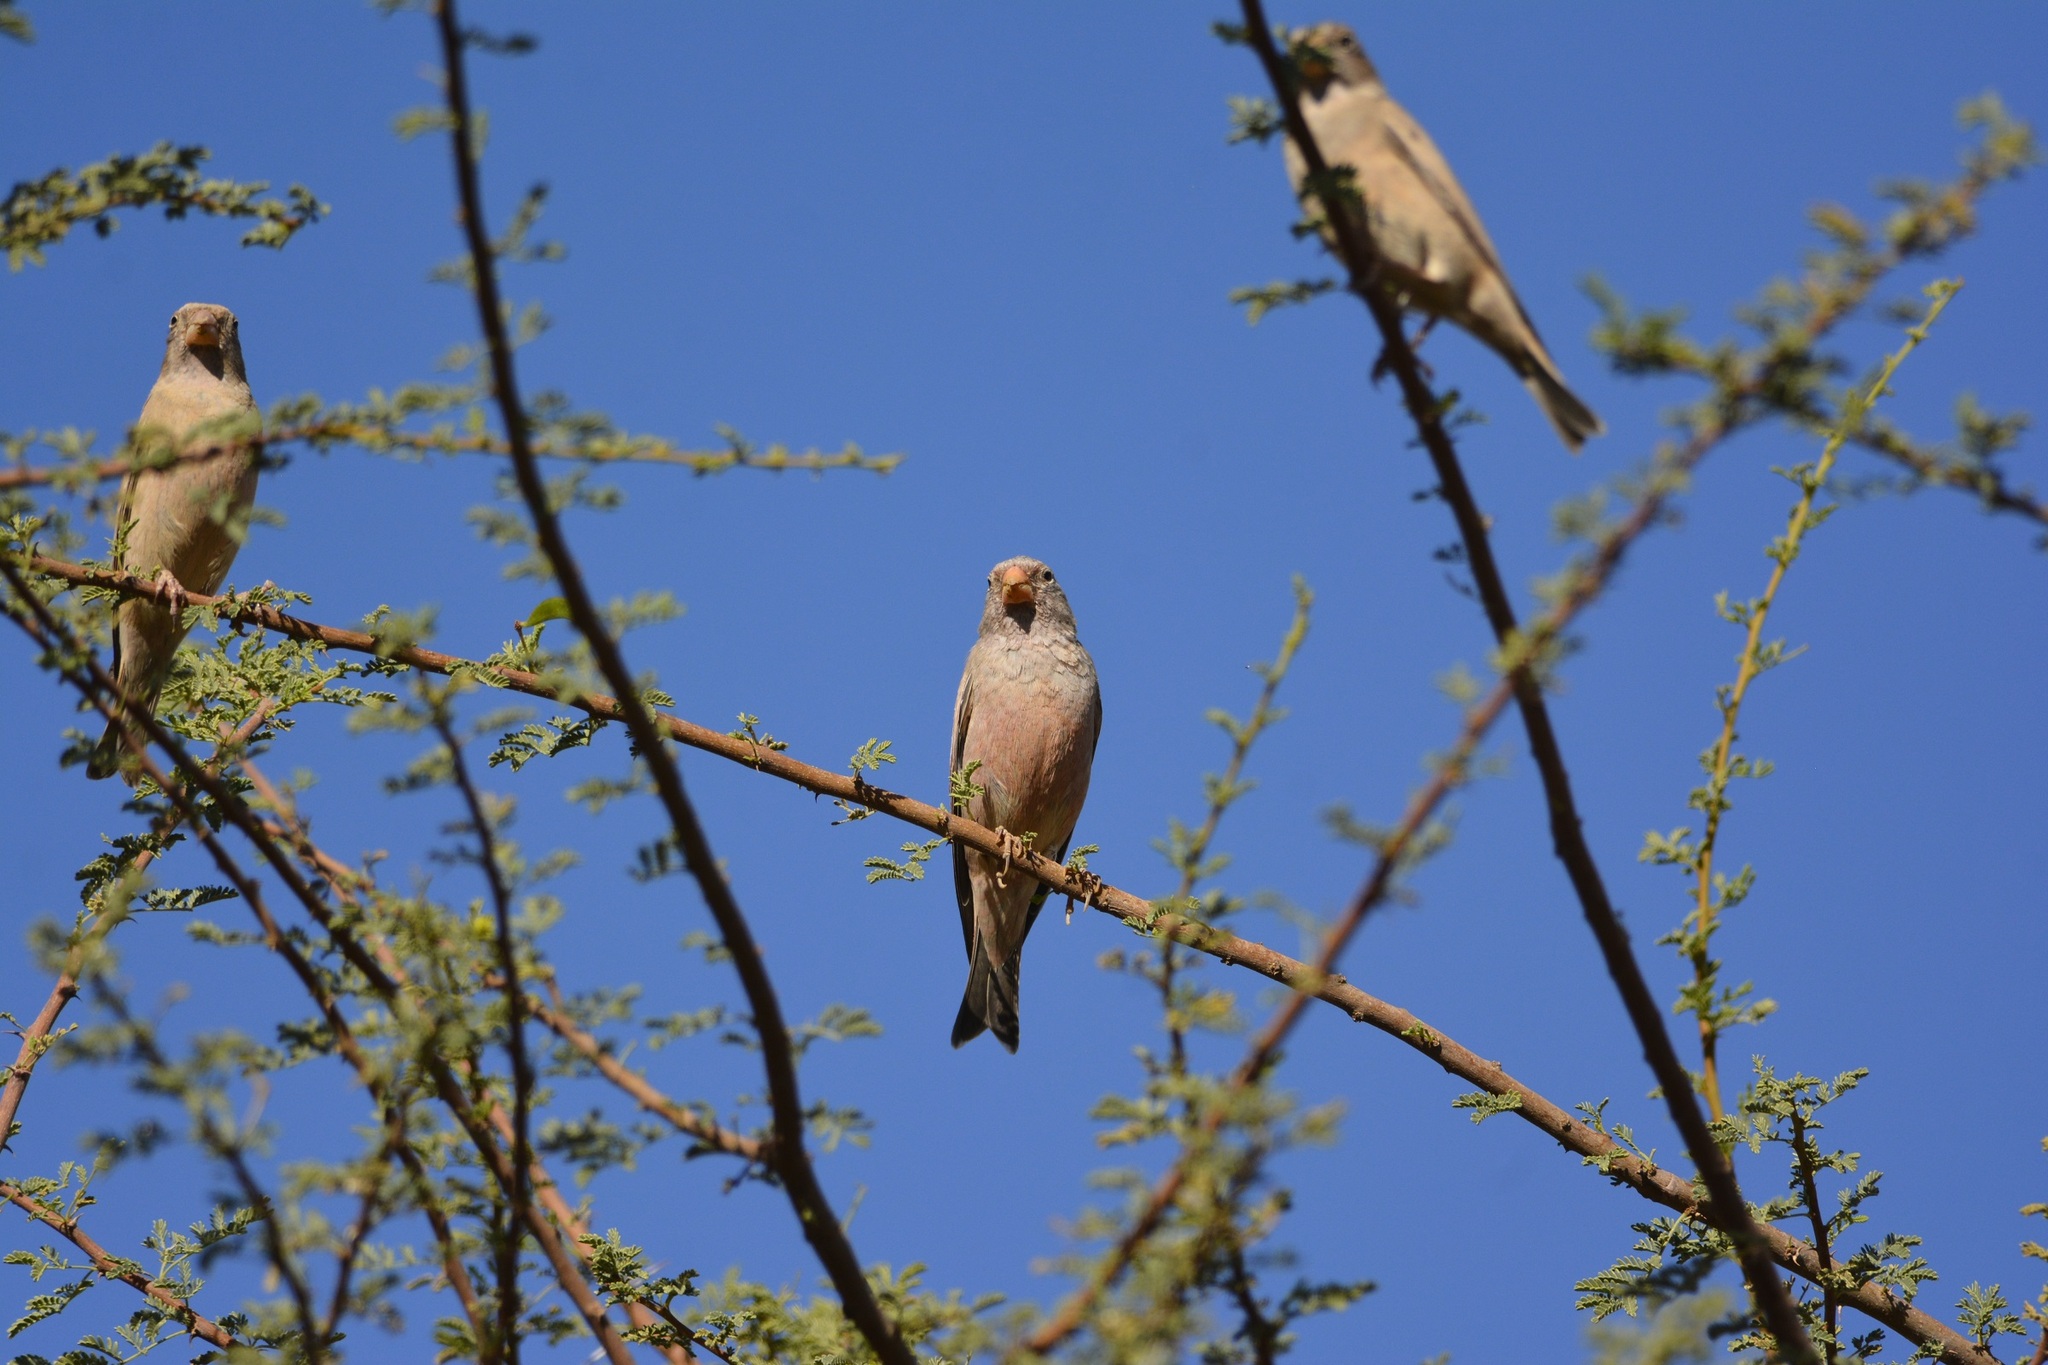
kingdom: Animalia
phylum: Chordata
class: Aves
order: Passeriformes
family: Fringillidae
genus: Bucanetes
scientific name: Bucanetes githagineus
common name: Trumpeter finch
